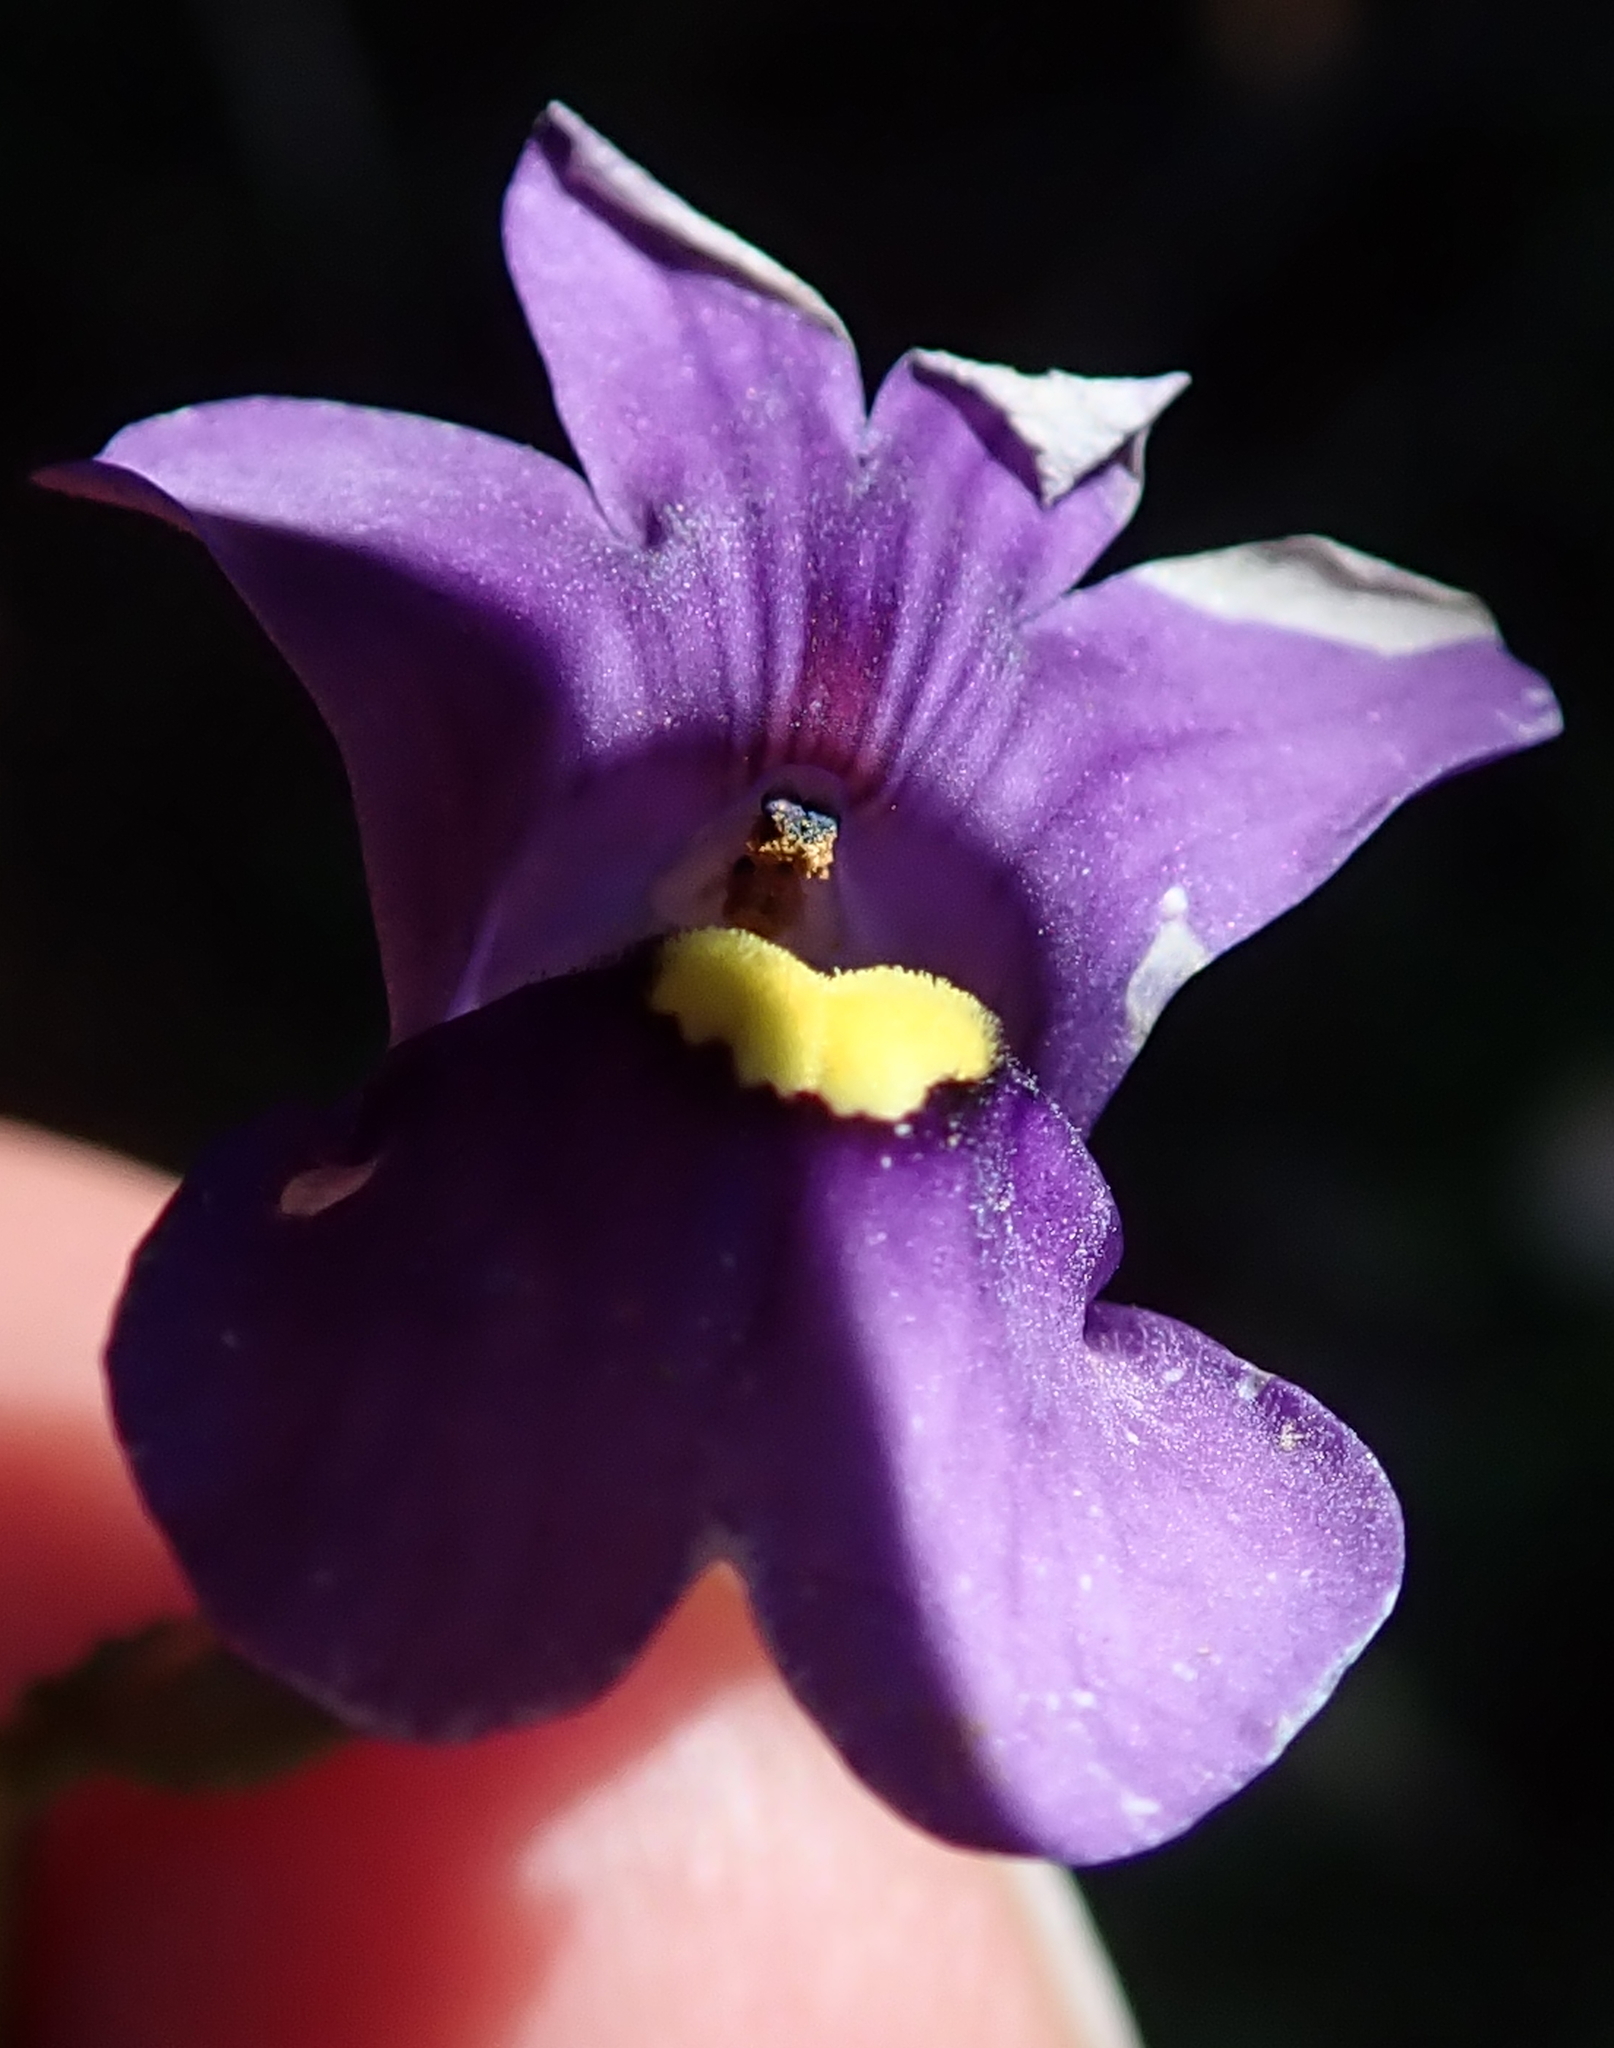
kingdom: Plantae
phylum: Tracheophyta
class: Magnoliopsida
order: Lamiales
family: Scrophulariaceae
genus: Nemesia
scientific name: Nemesia leipoldtii
